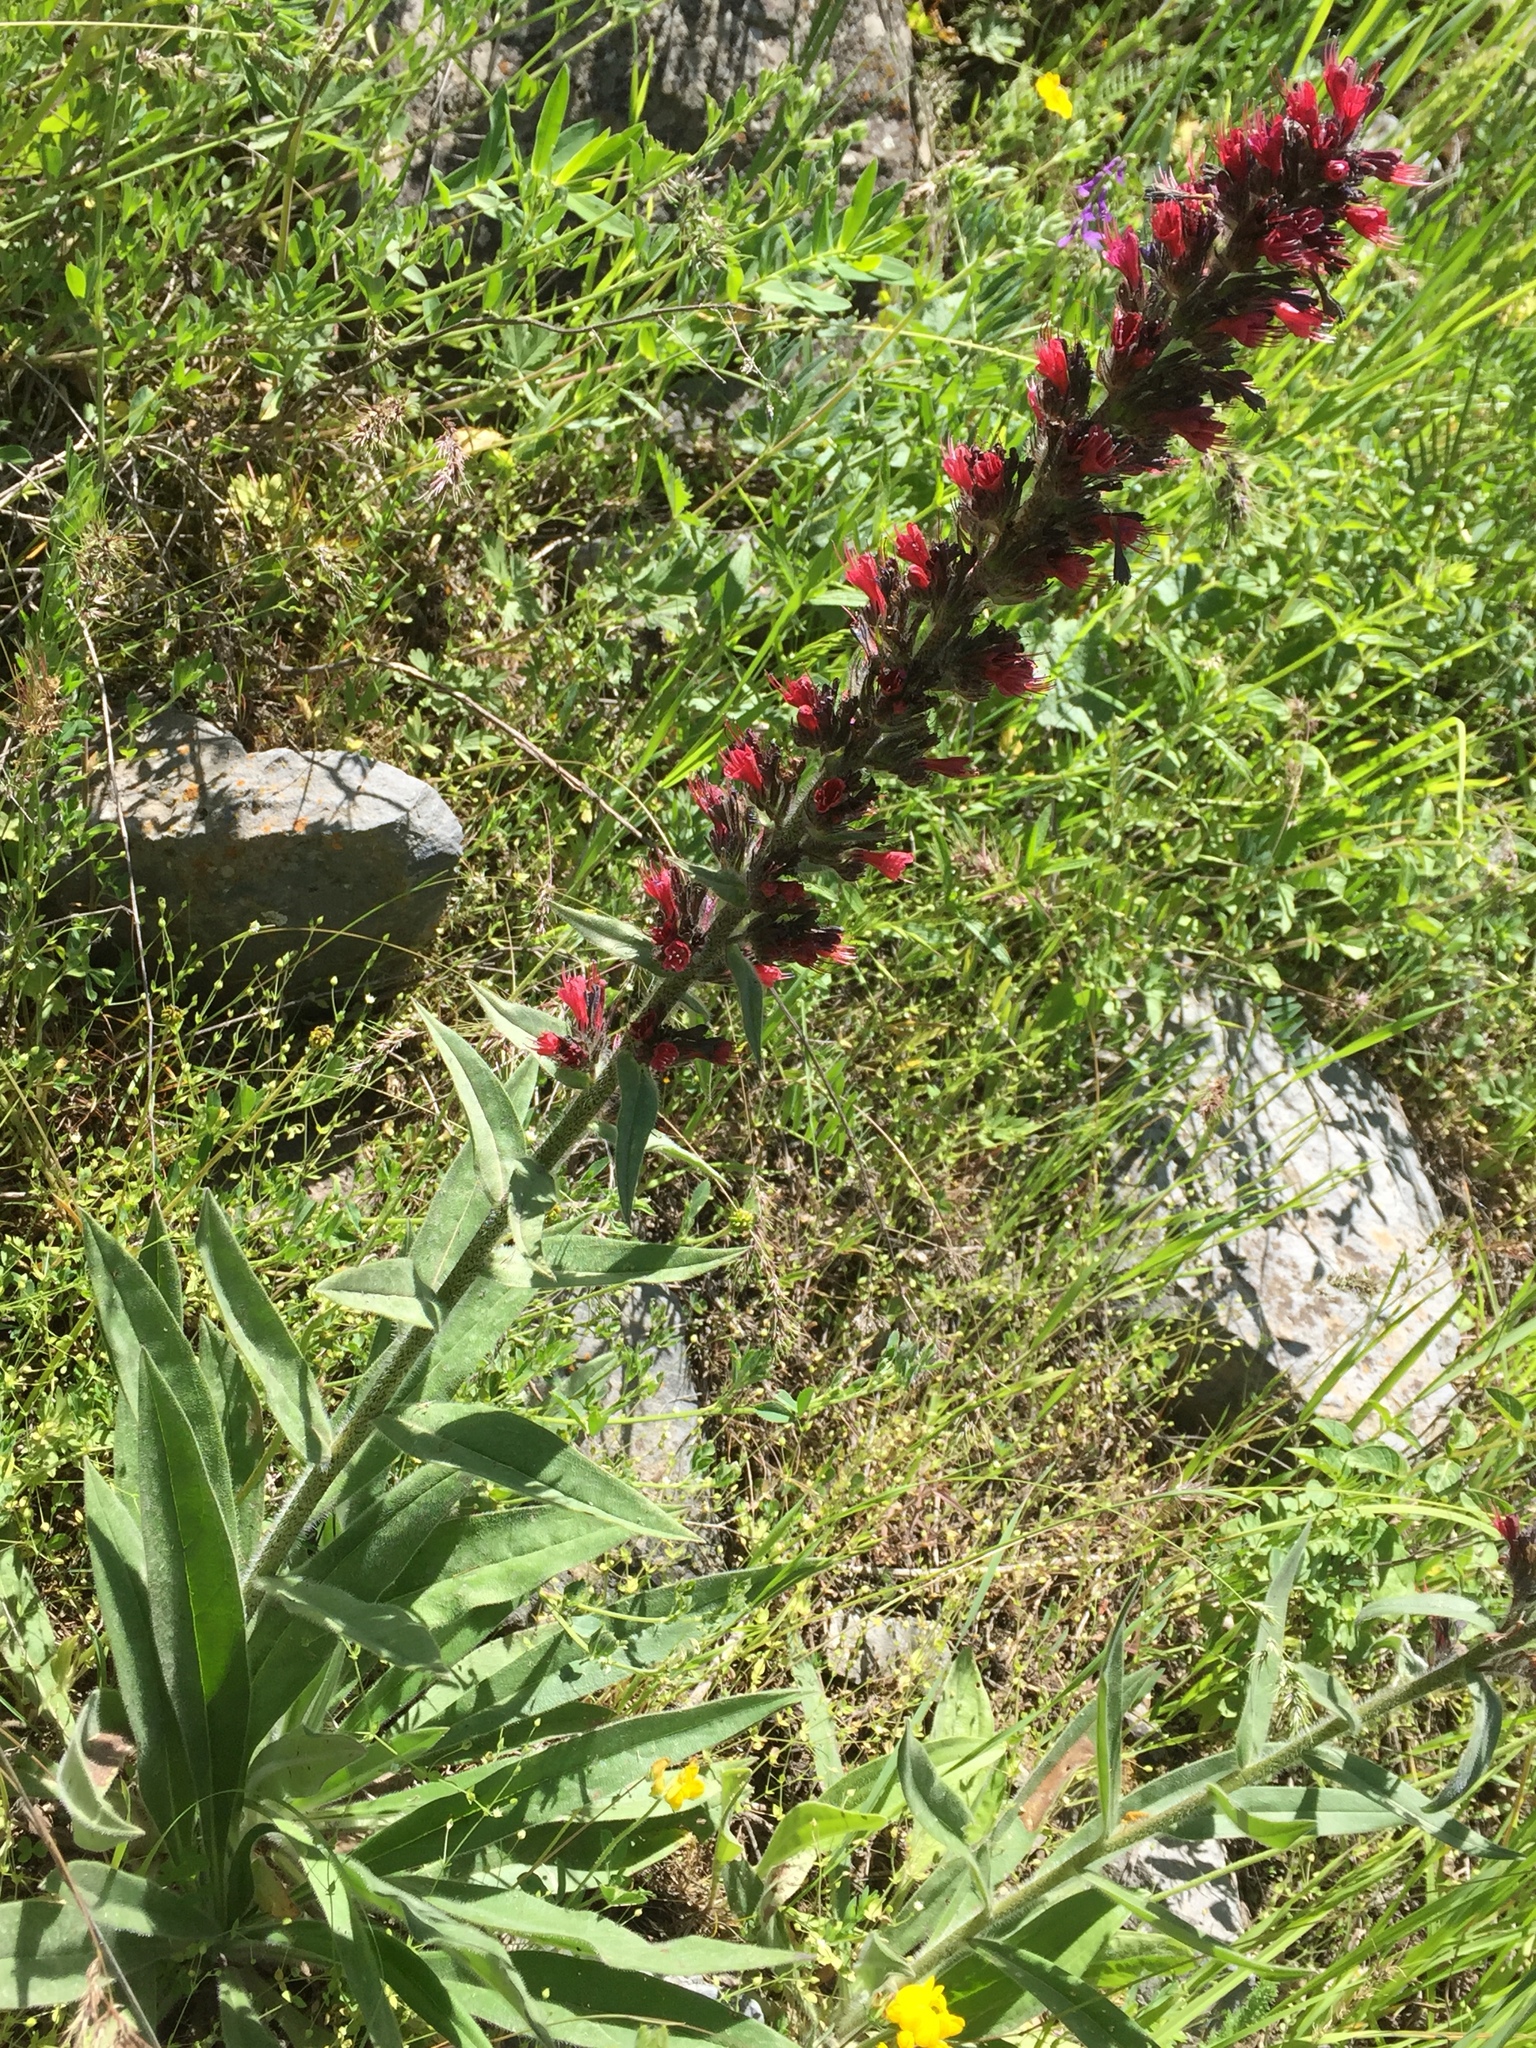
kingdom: Plantae
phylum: Tracheophyta
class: Magnoliopsida
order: Boraginales
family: Boraginaceae
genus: Pontechium
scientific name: Pontechium maculatum
